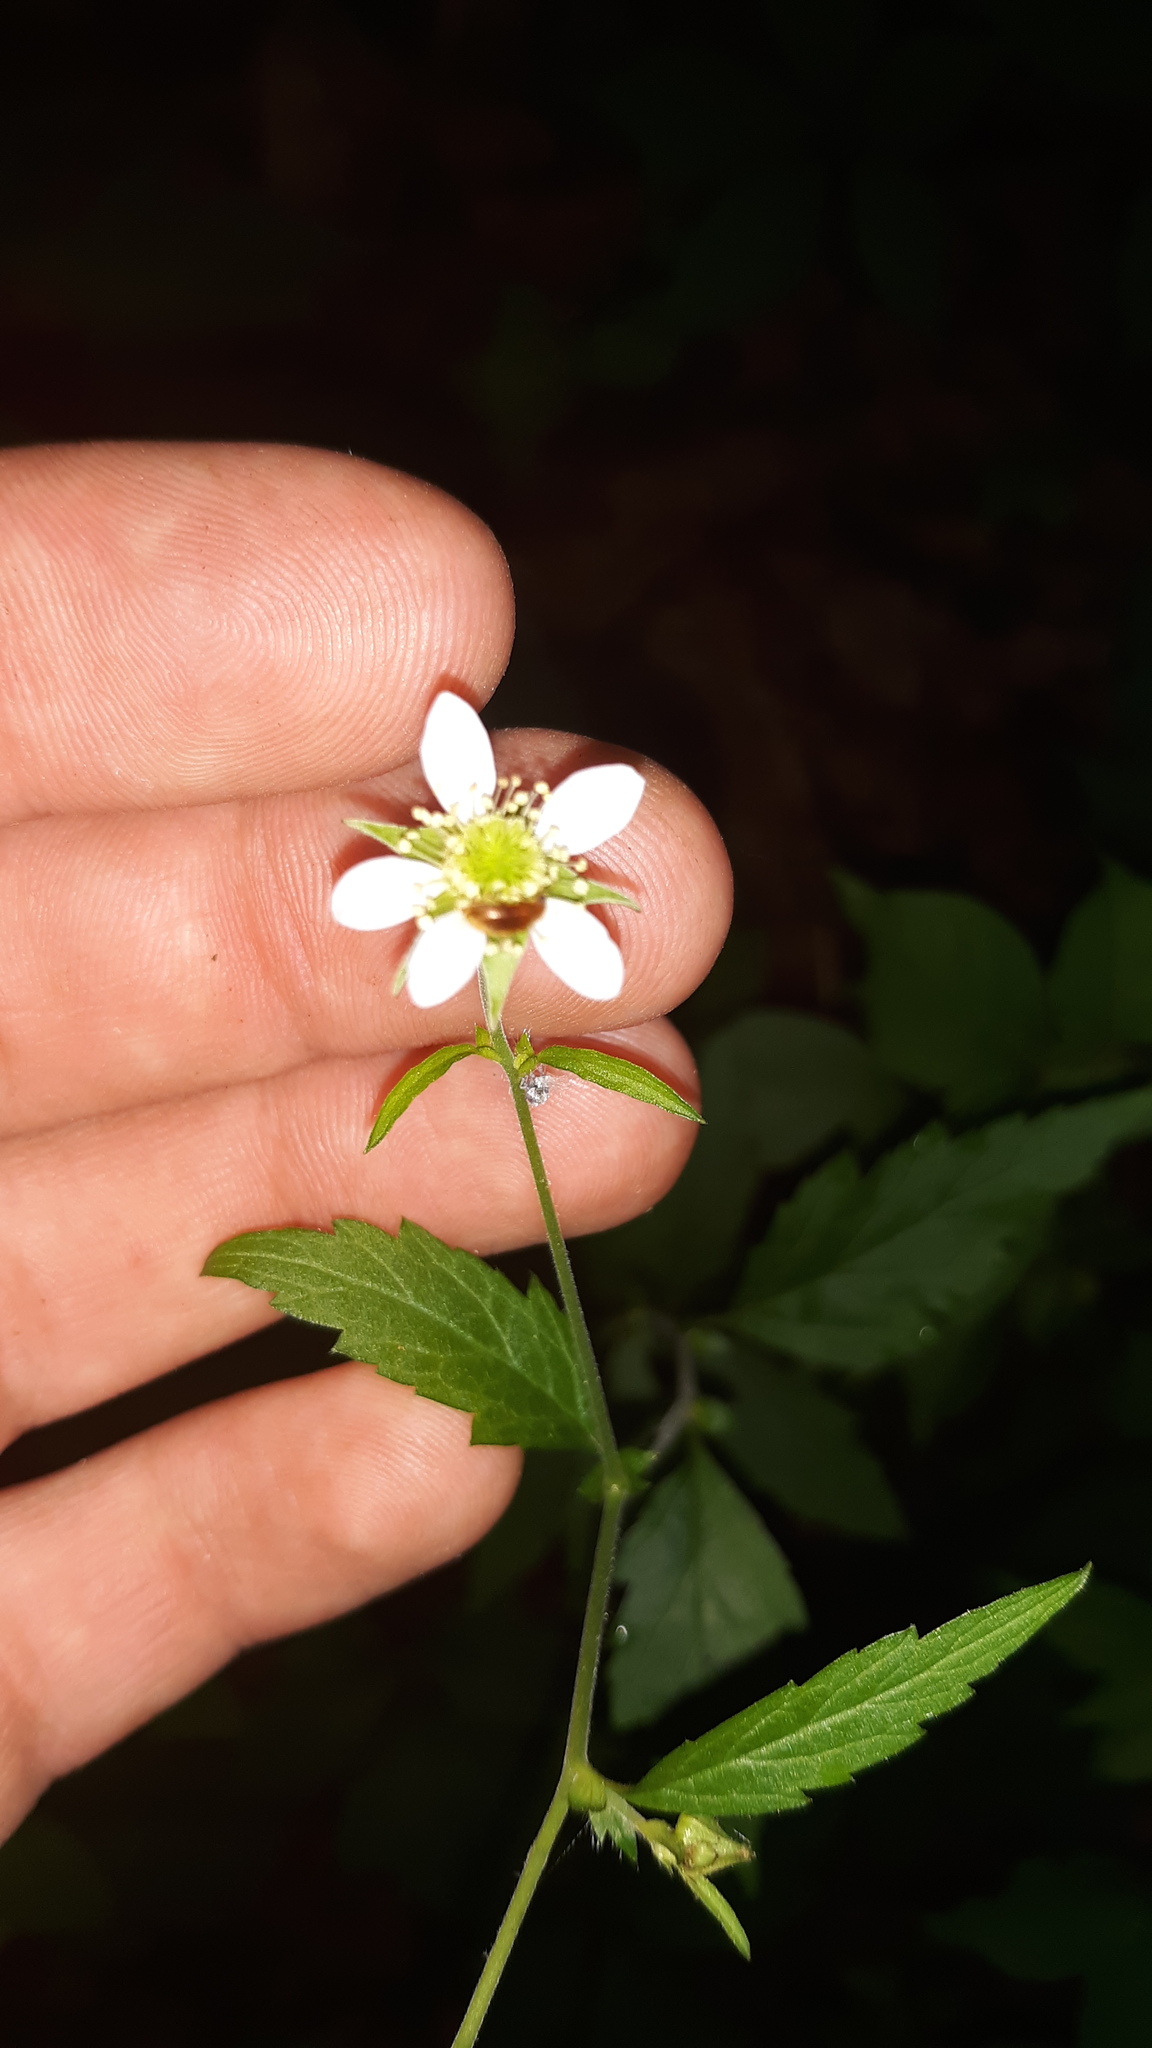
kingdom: Plantae
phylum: Tracheophyta
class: Magnoliopsida
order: Rosales
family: Rosaceae
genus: Geum
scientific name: Geum canadense
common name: White avens
